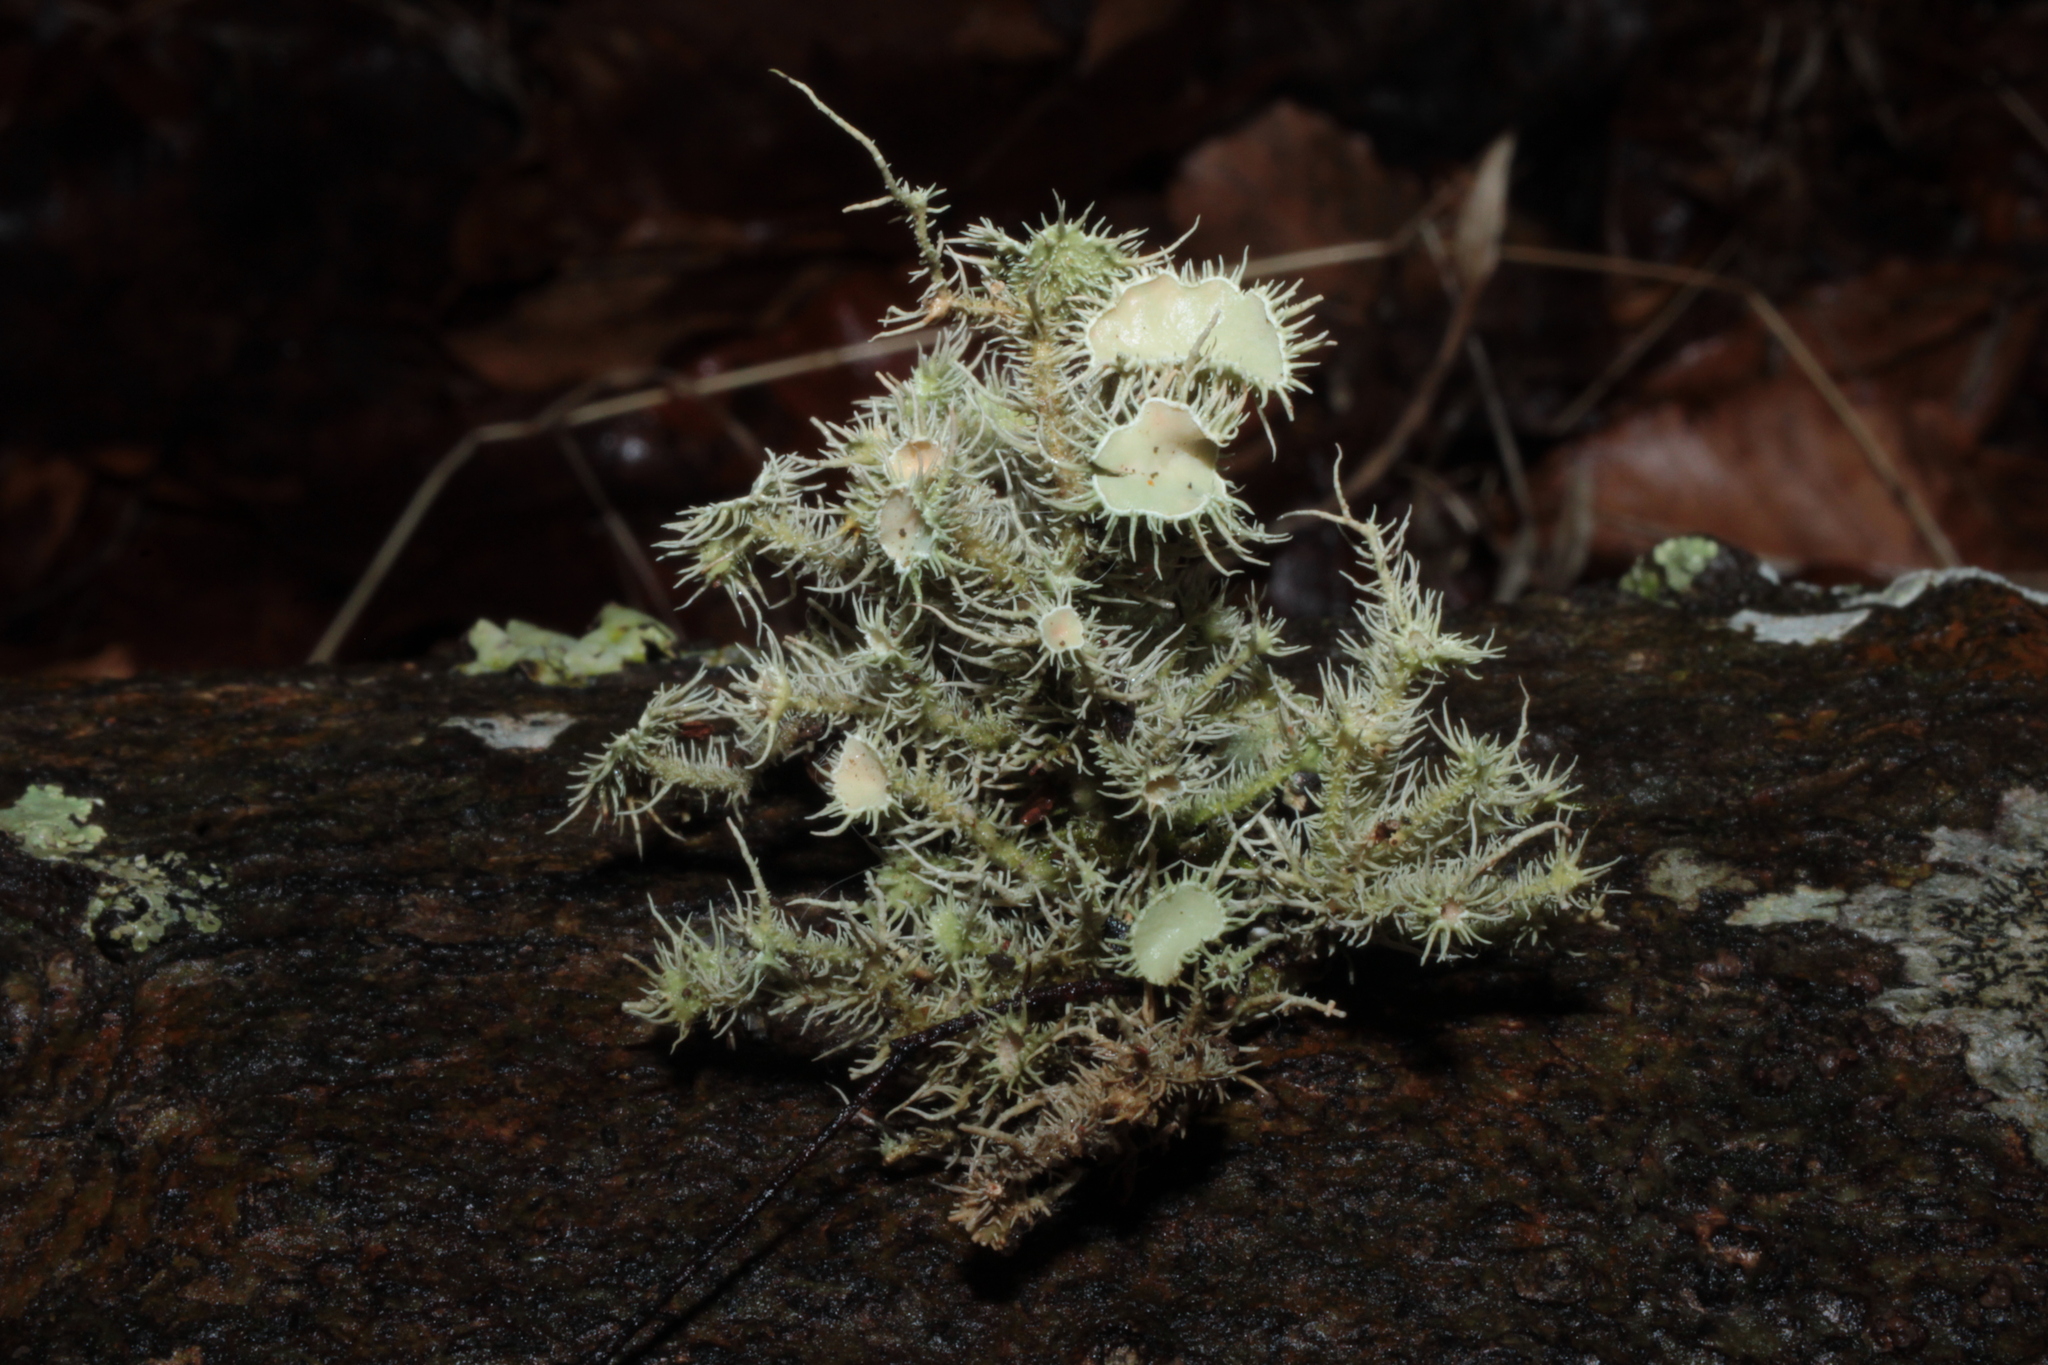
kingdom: Fungi
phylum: Ascomycota
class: Lecanoromycetes
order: Lecanorales
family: Parmeliaceae
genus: Usnea
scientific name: Usnea strigosa
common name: Bushy beard lichen
